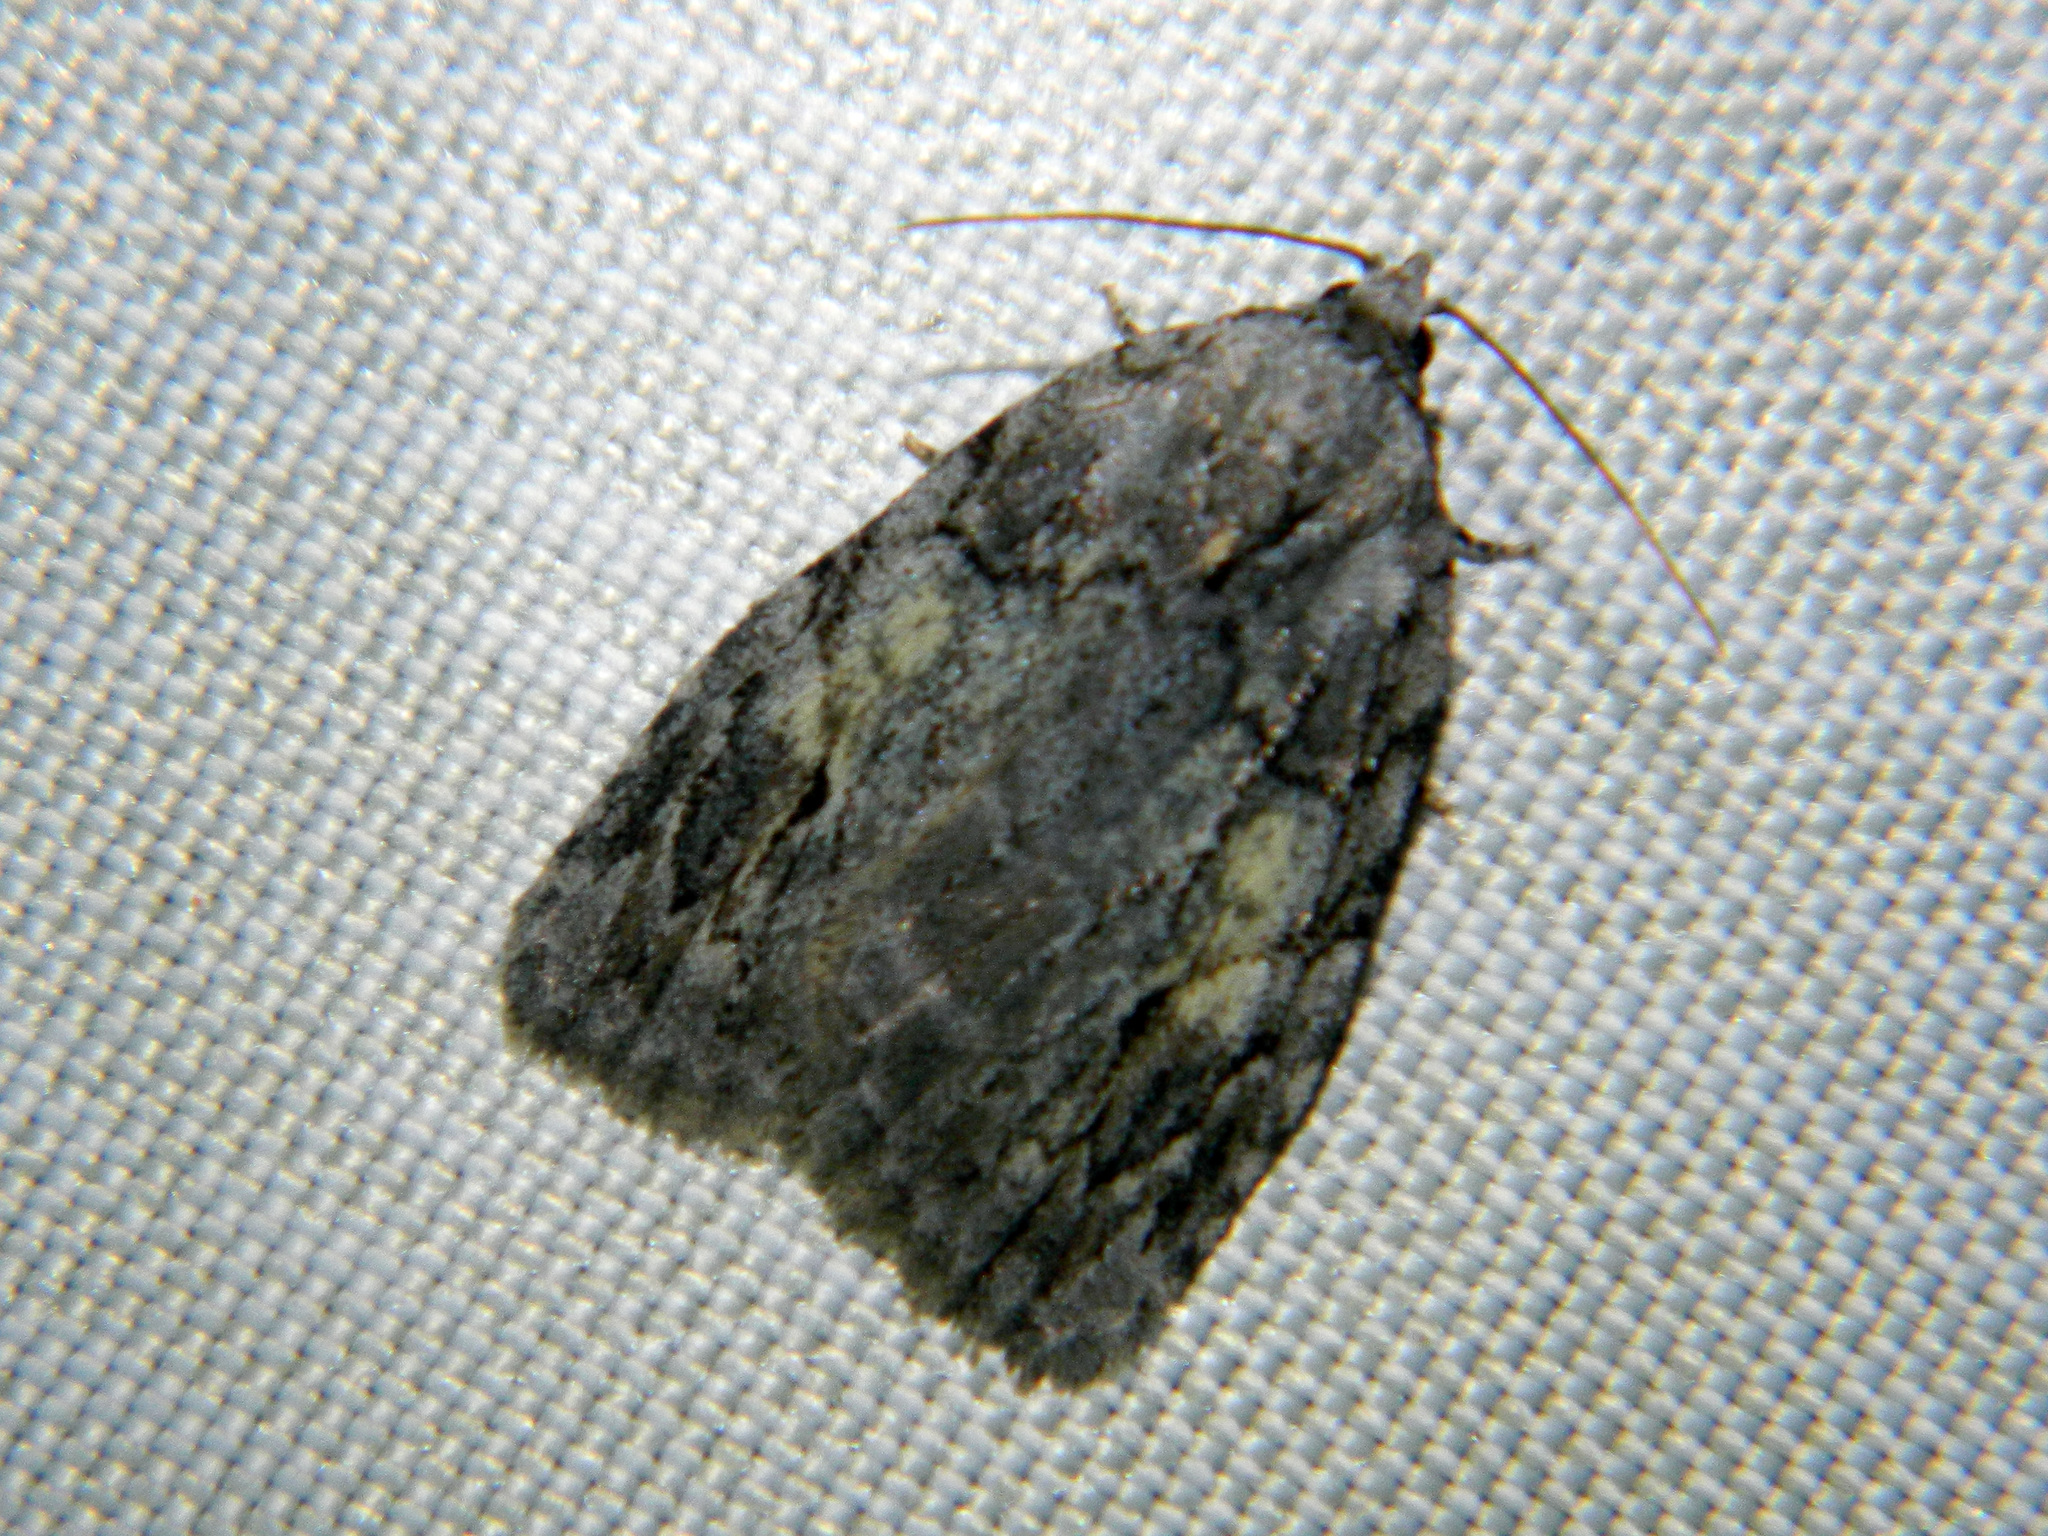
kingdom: Animalia
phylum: Arthropoda
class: Insecta
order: Lepidoptera
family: Noctuidae
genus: Balsa
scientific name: Balsa labecula
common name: White-blotched balsa moth
